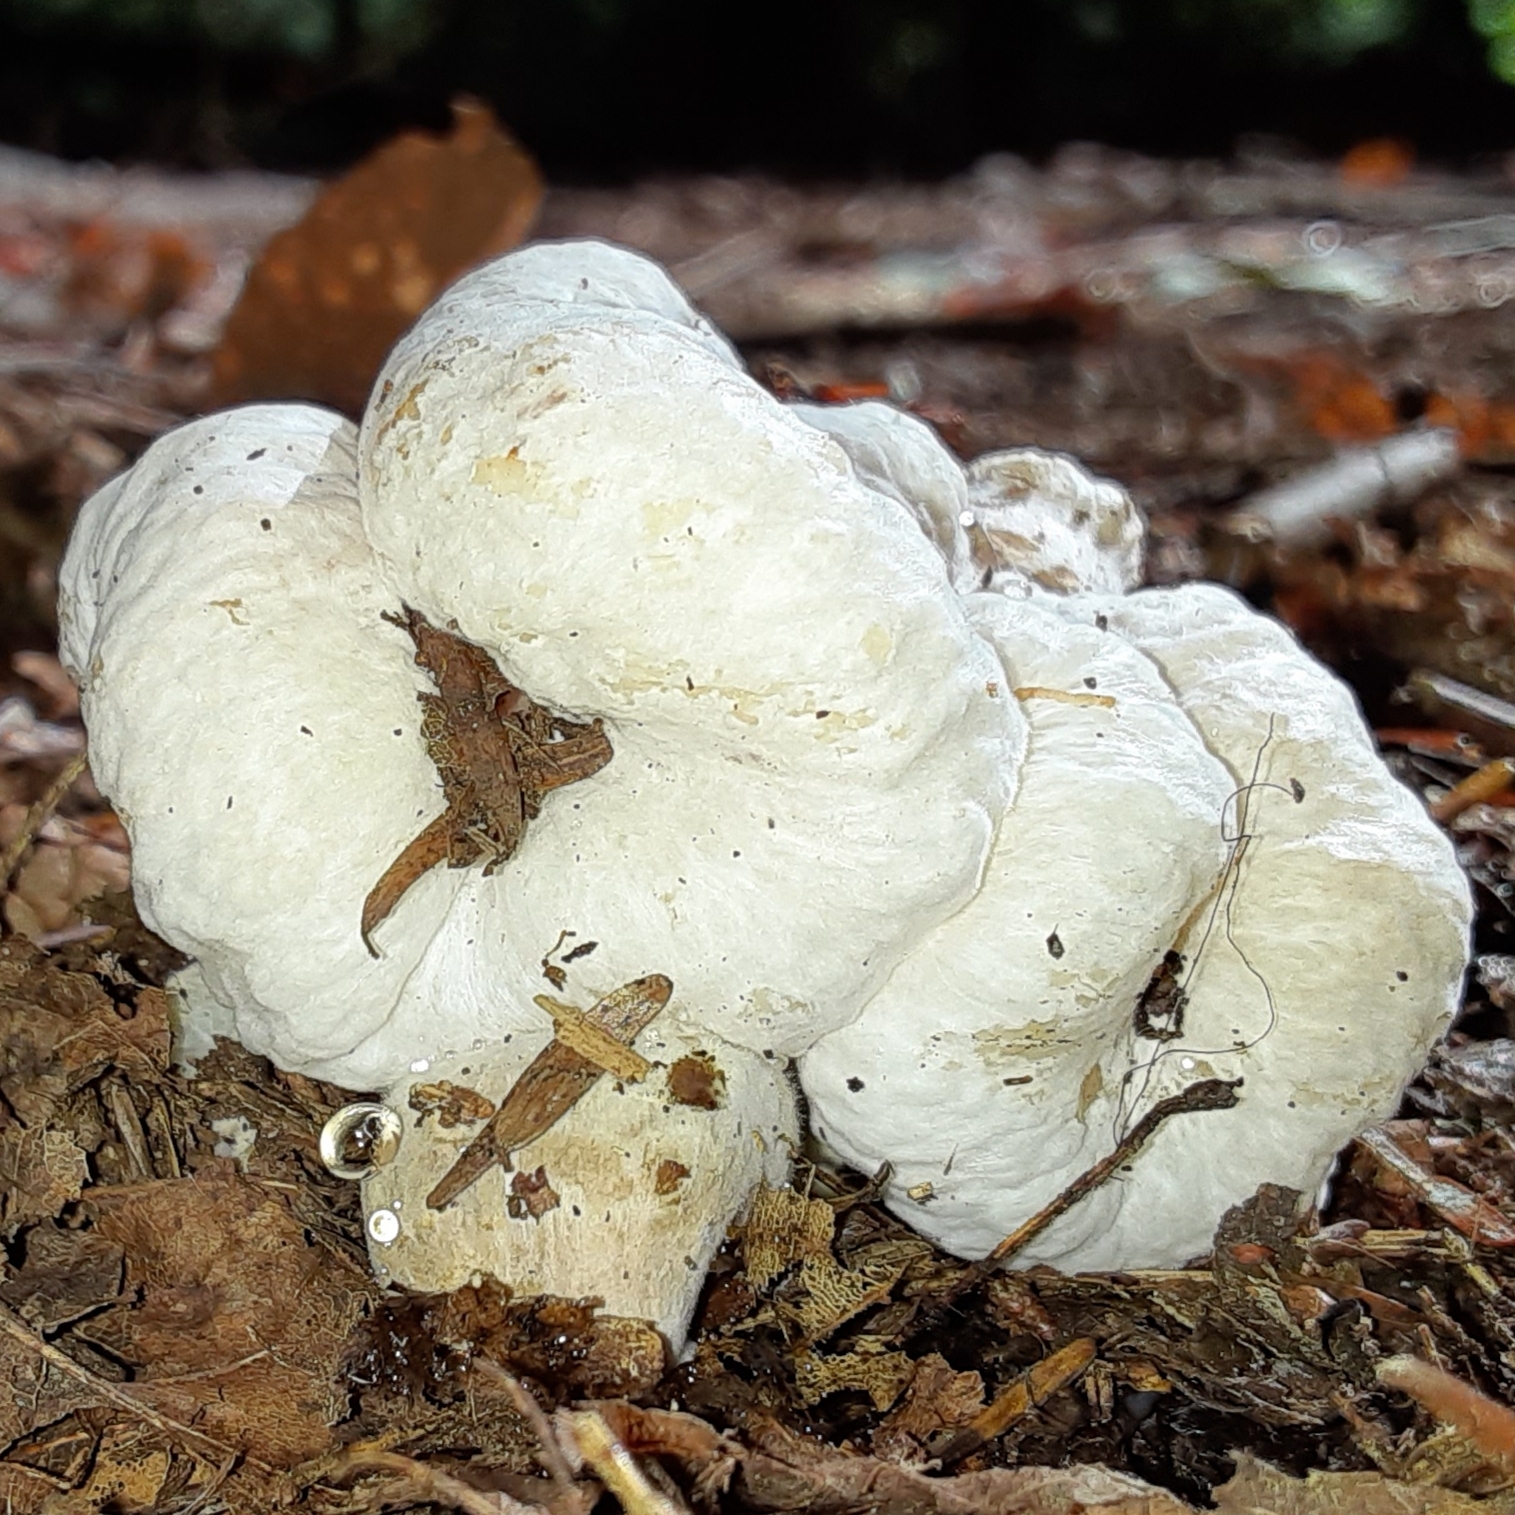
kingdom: Fungi
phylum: Basidiomycota
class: Agaricomycetes
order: Agaricales
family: Entolomataceae
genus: Entoloma
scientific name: Entoloma abortivum
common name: Aborted entoloma
